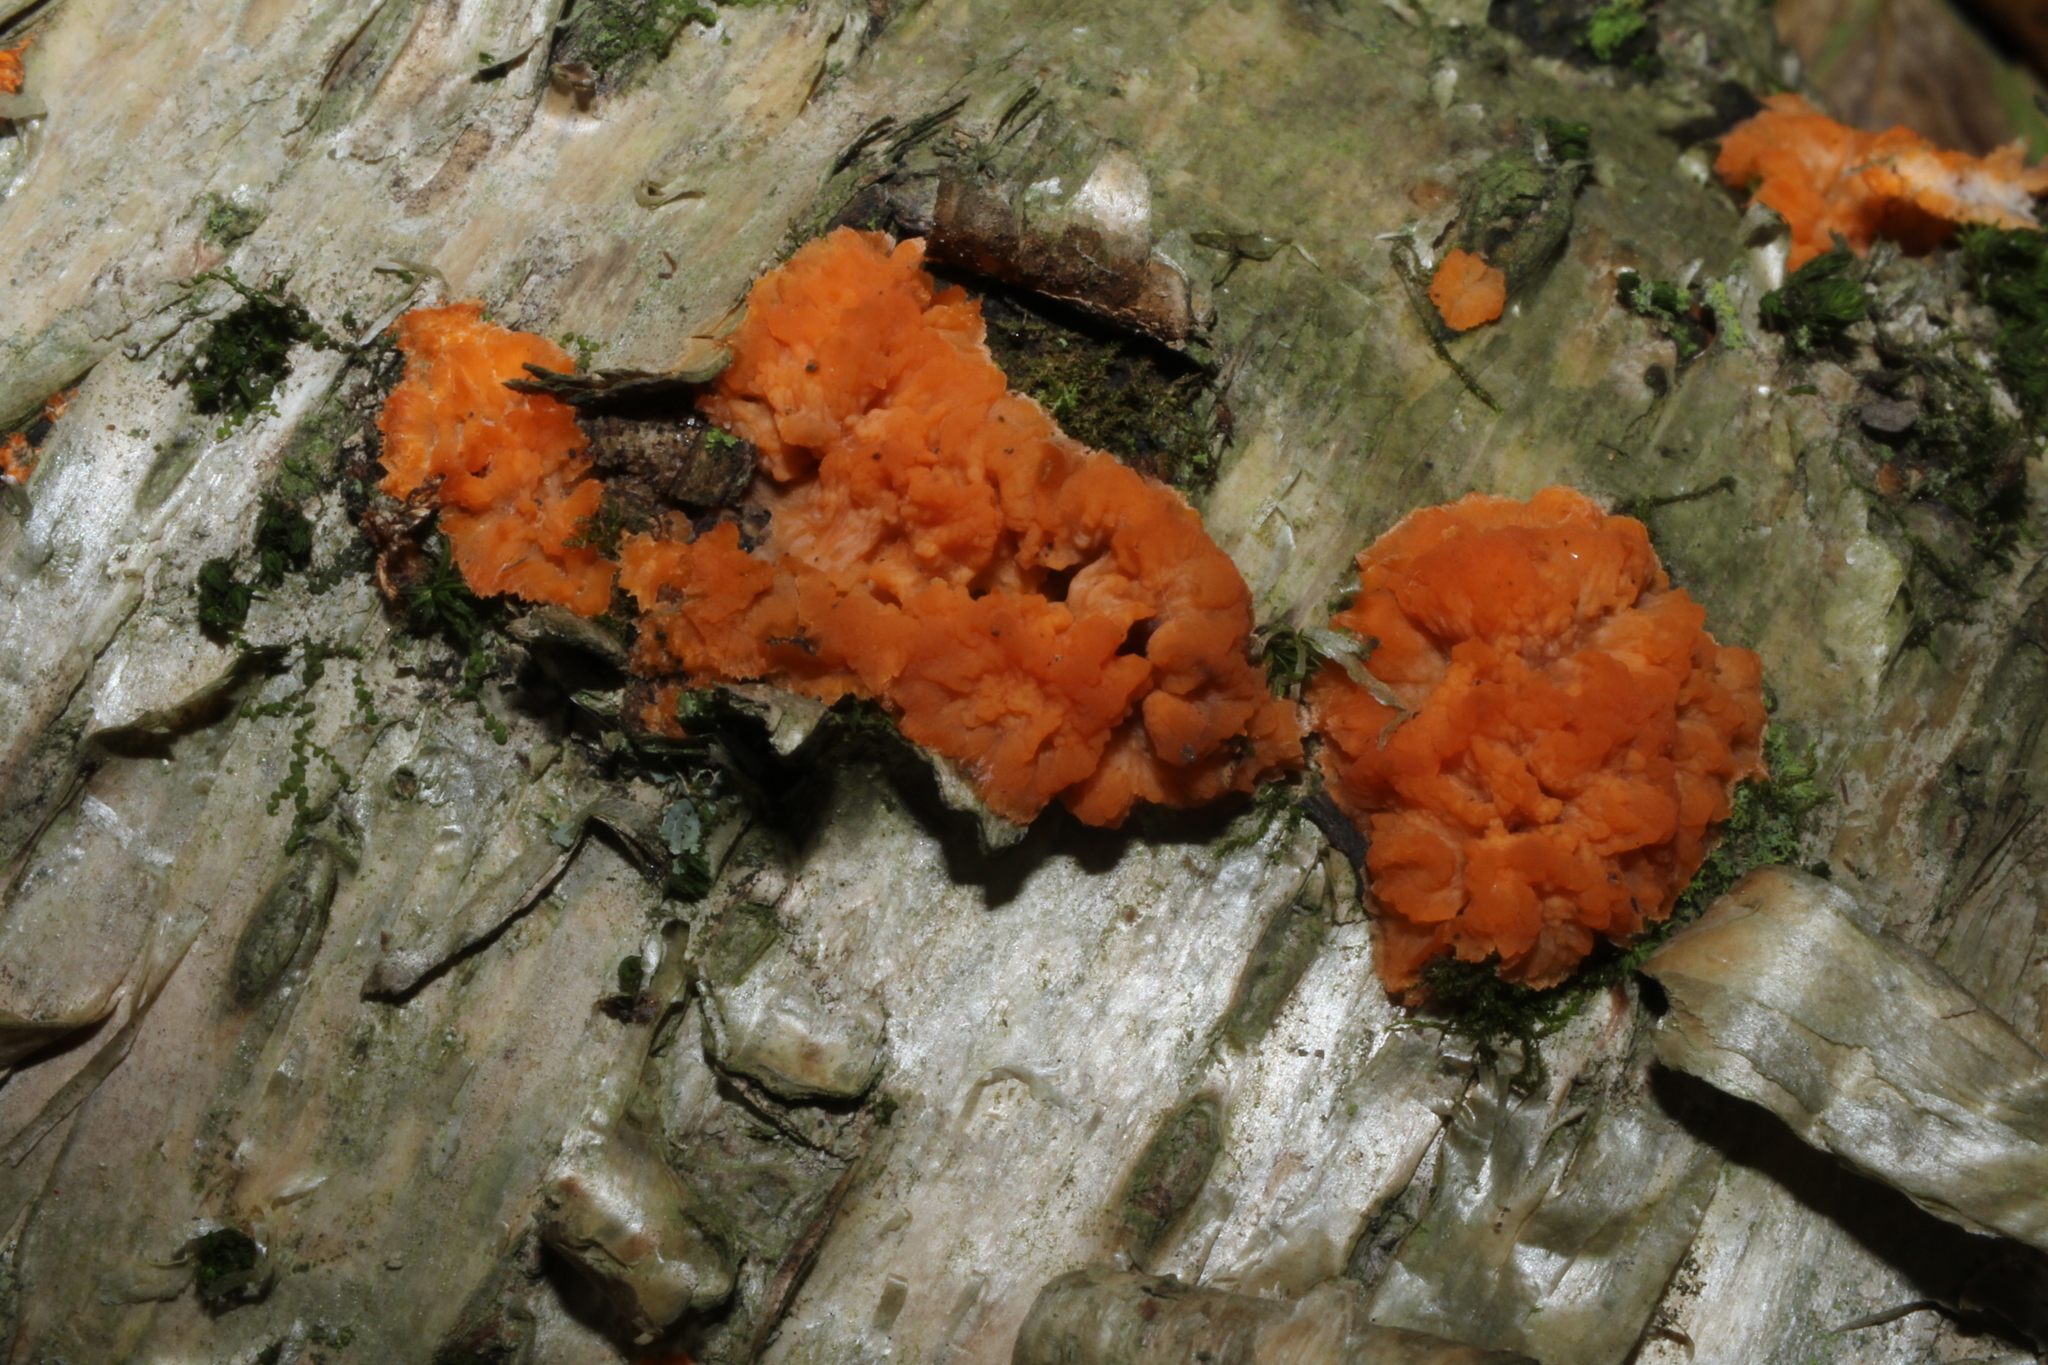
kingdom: Fungi
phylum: Basidiomycota
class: Agaricomycetes
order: Polyporales
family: Meruliaceae
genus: Phlebia
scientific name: Phlebia radiata
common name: Wrinkled crust
